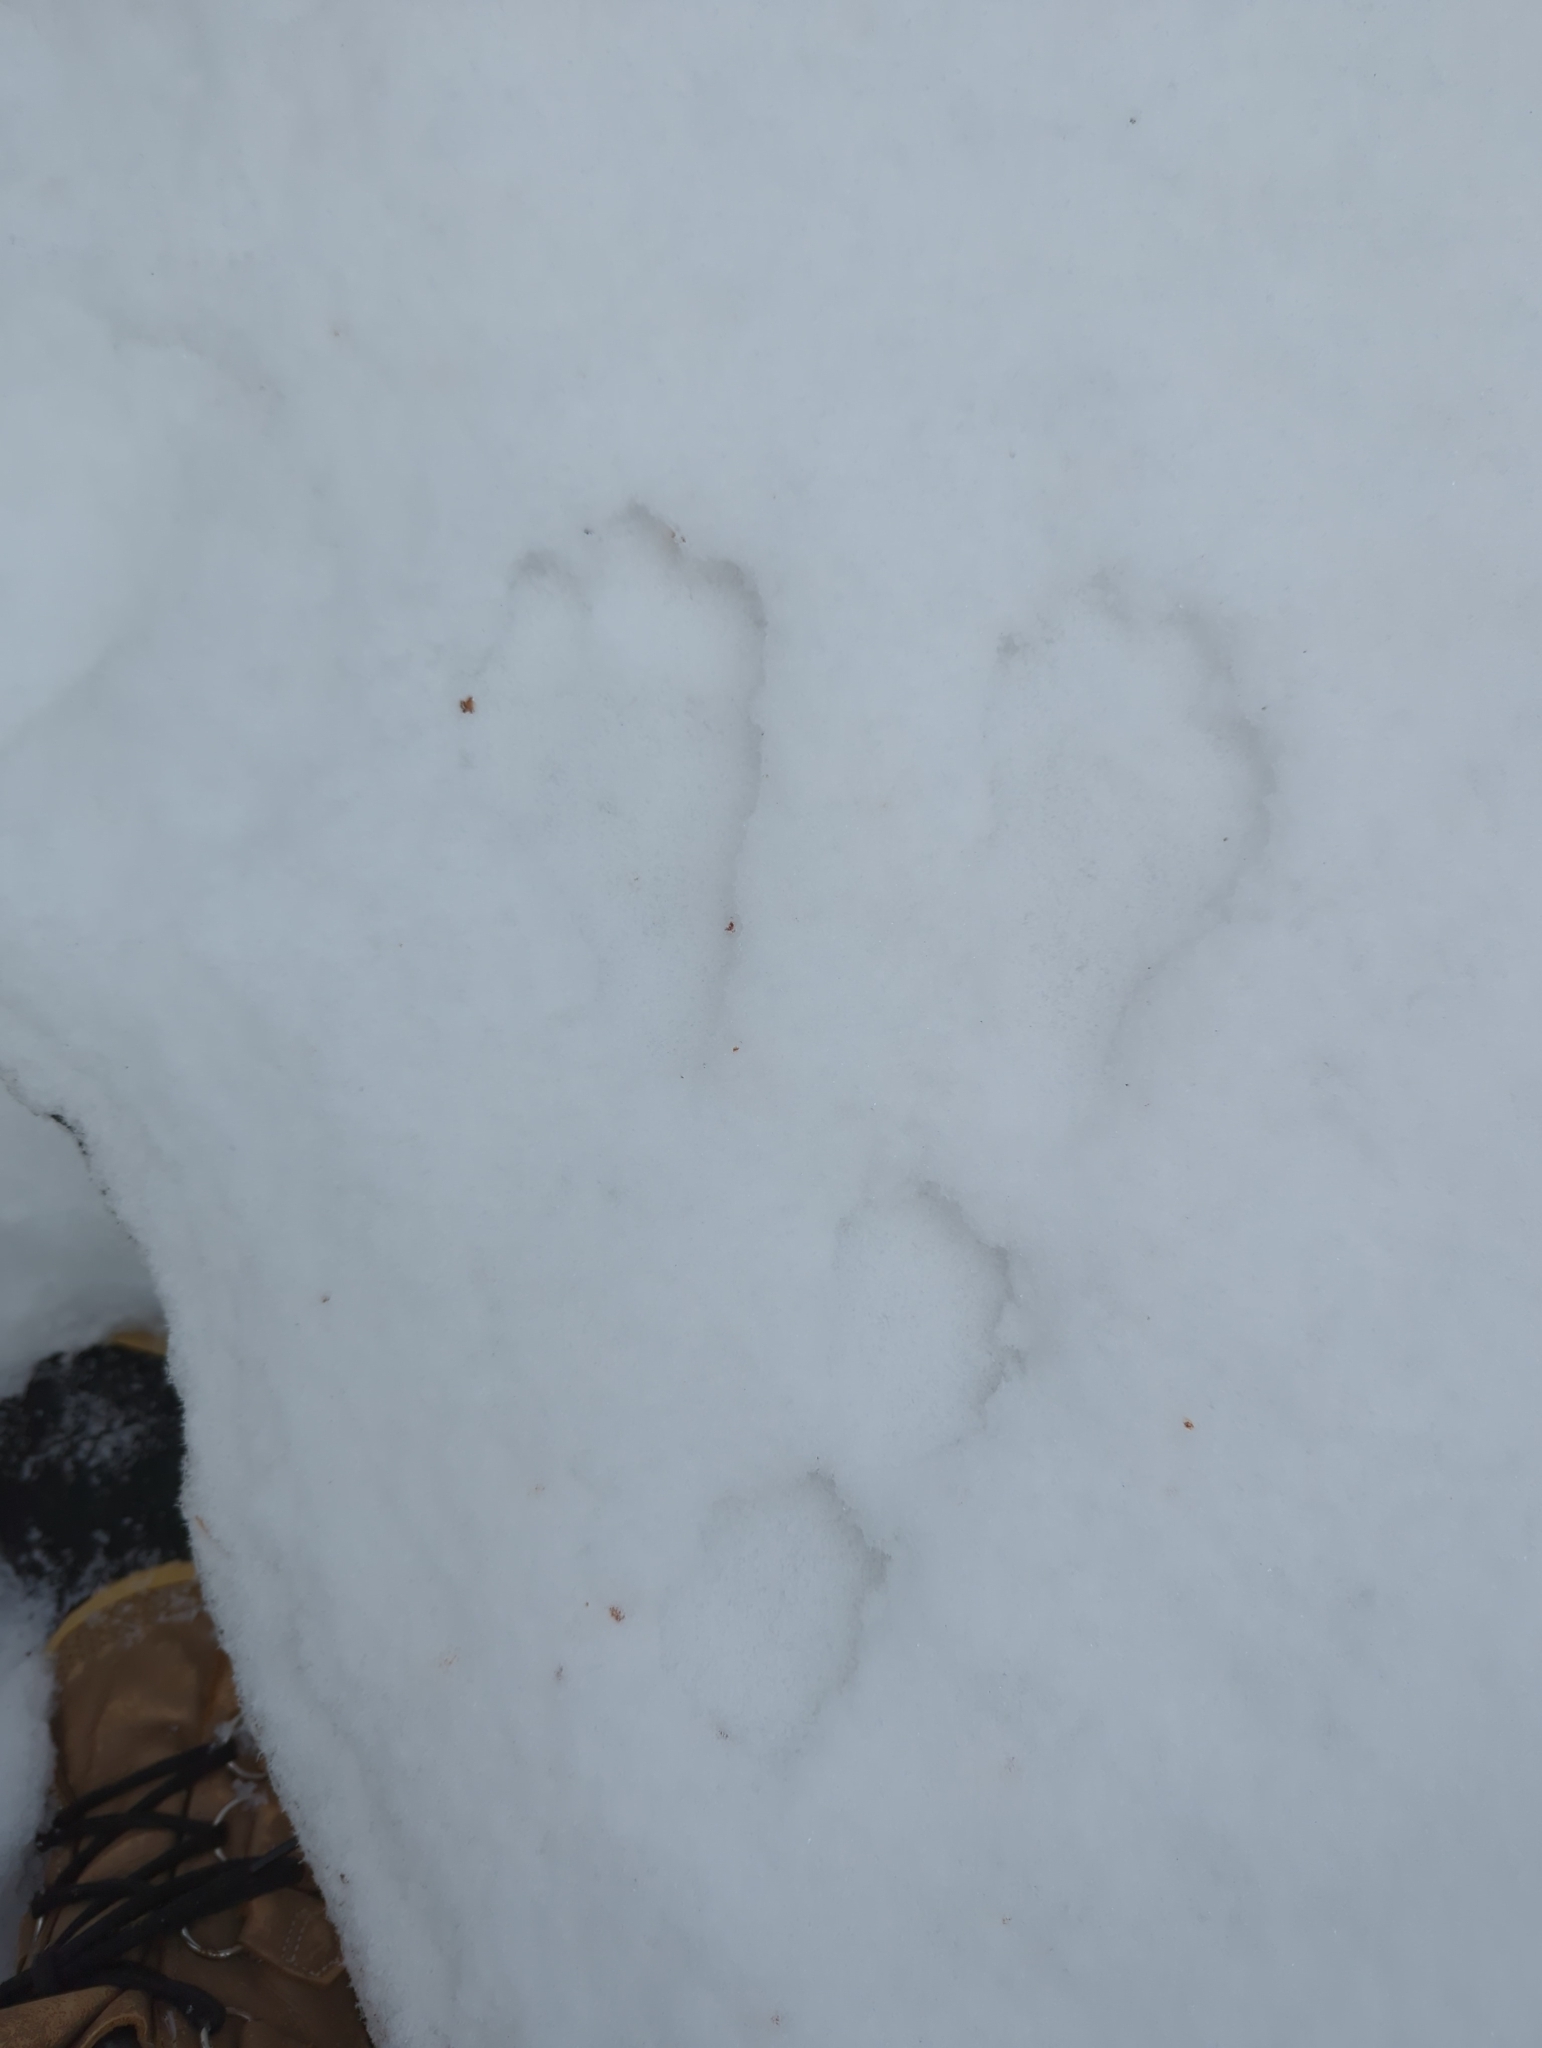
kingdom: Animalia
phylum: Chordata
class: Mammalia
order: Lagomorpha
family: Leporidae
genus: Lepus
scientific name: Lepus americanus
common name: Snowshoe hare
